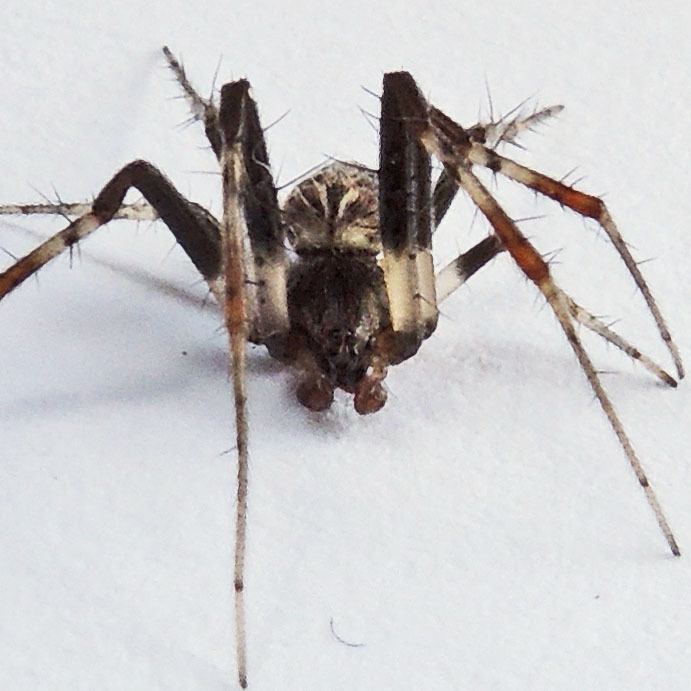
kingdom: Animalia
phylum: Arthropoda
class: Arachnida
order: Araneae
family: Araneidae
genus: Metepeira
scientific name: Metepeira labyrinthea
